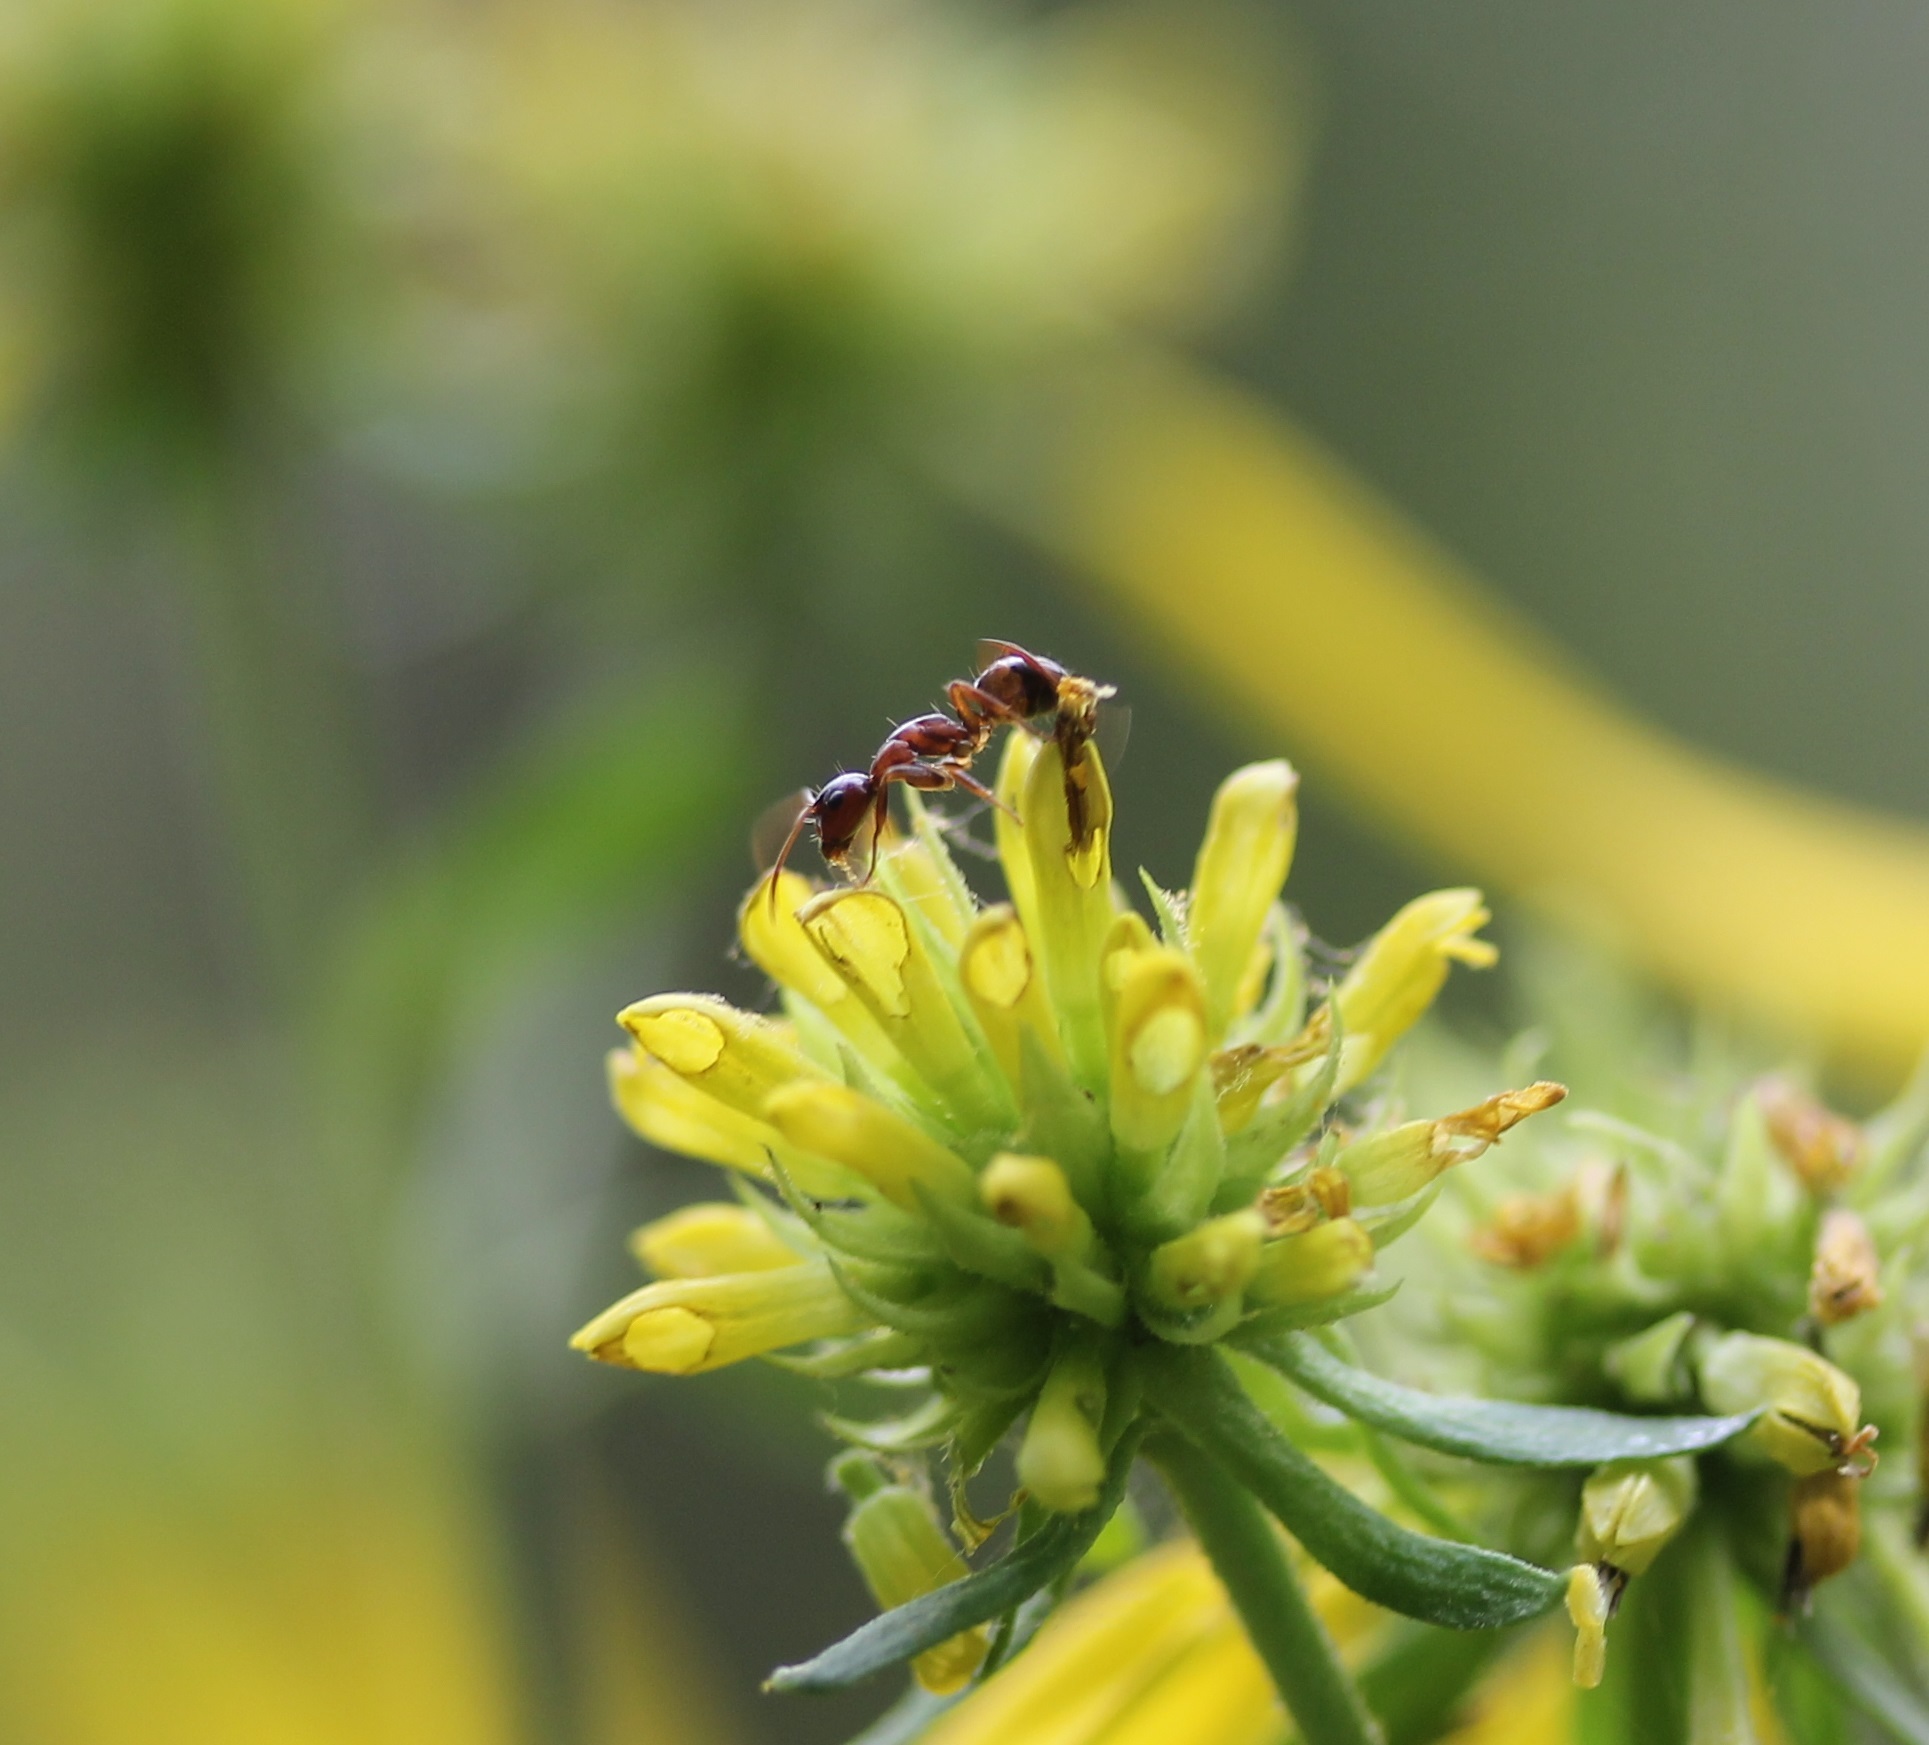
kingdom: Animalia
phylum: Arthropoda
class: Insecta
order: Hymenoptera
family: Formicidae
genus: Camponotus
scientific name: Camponotus subbarbatus
